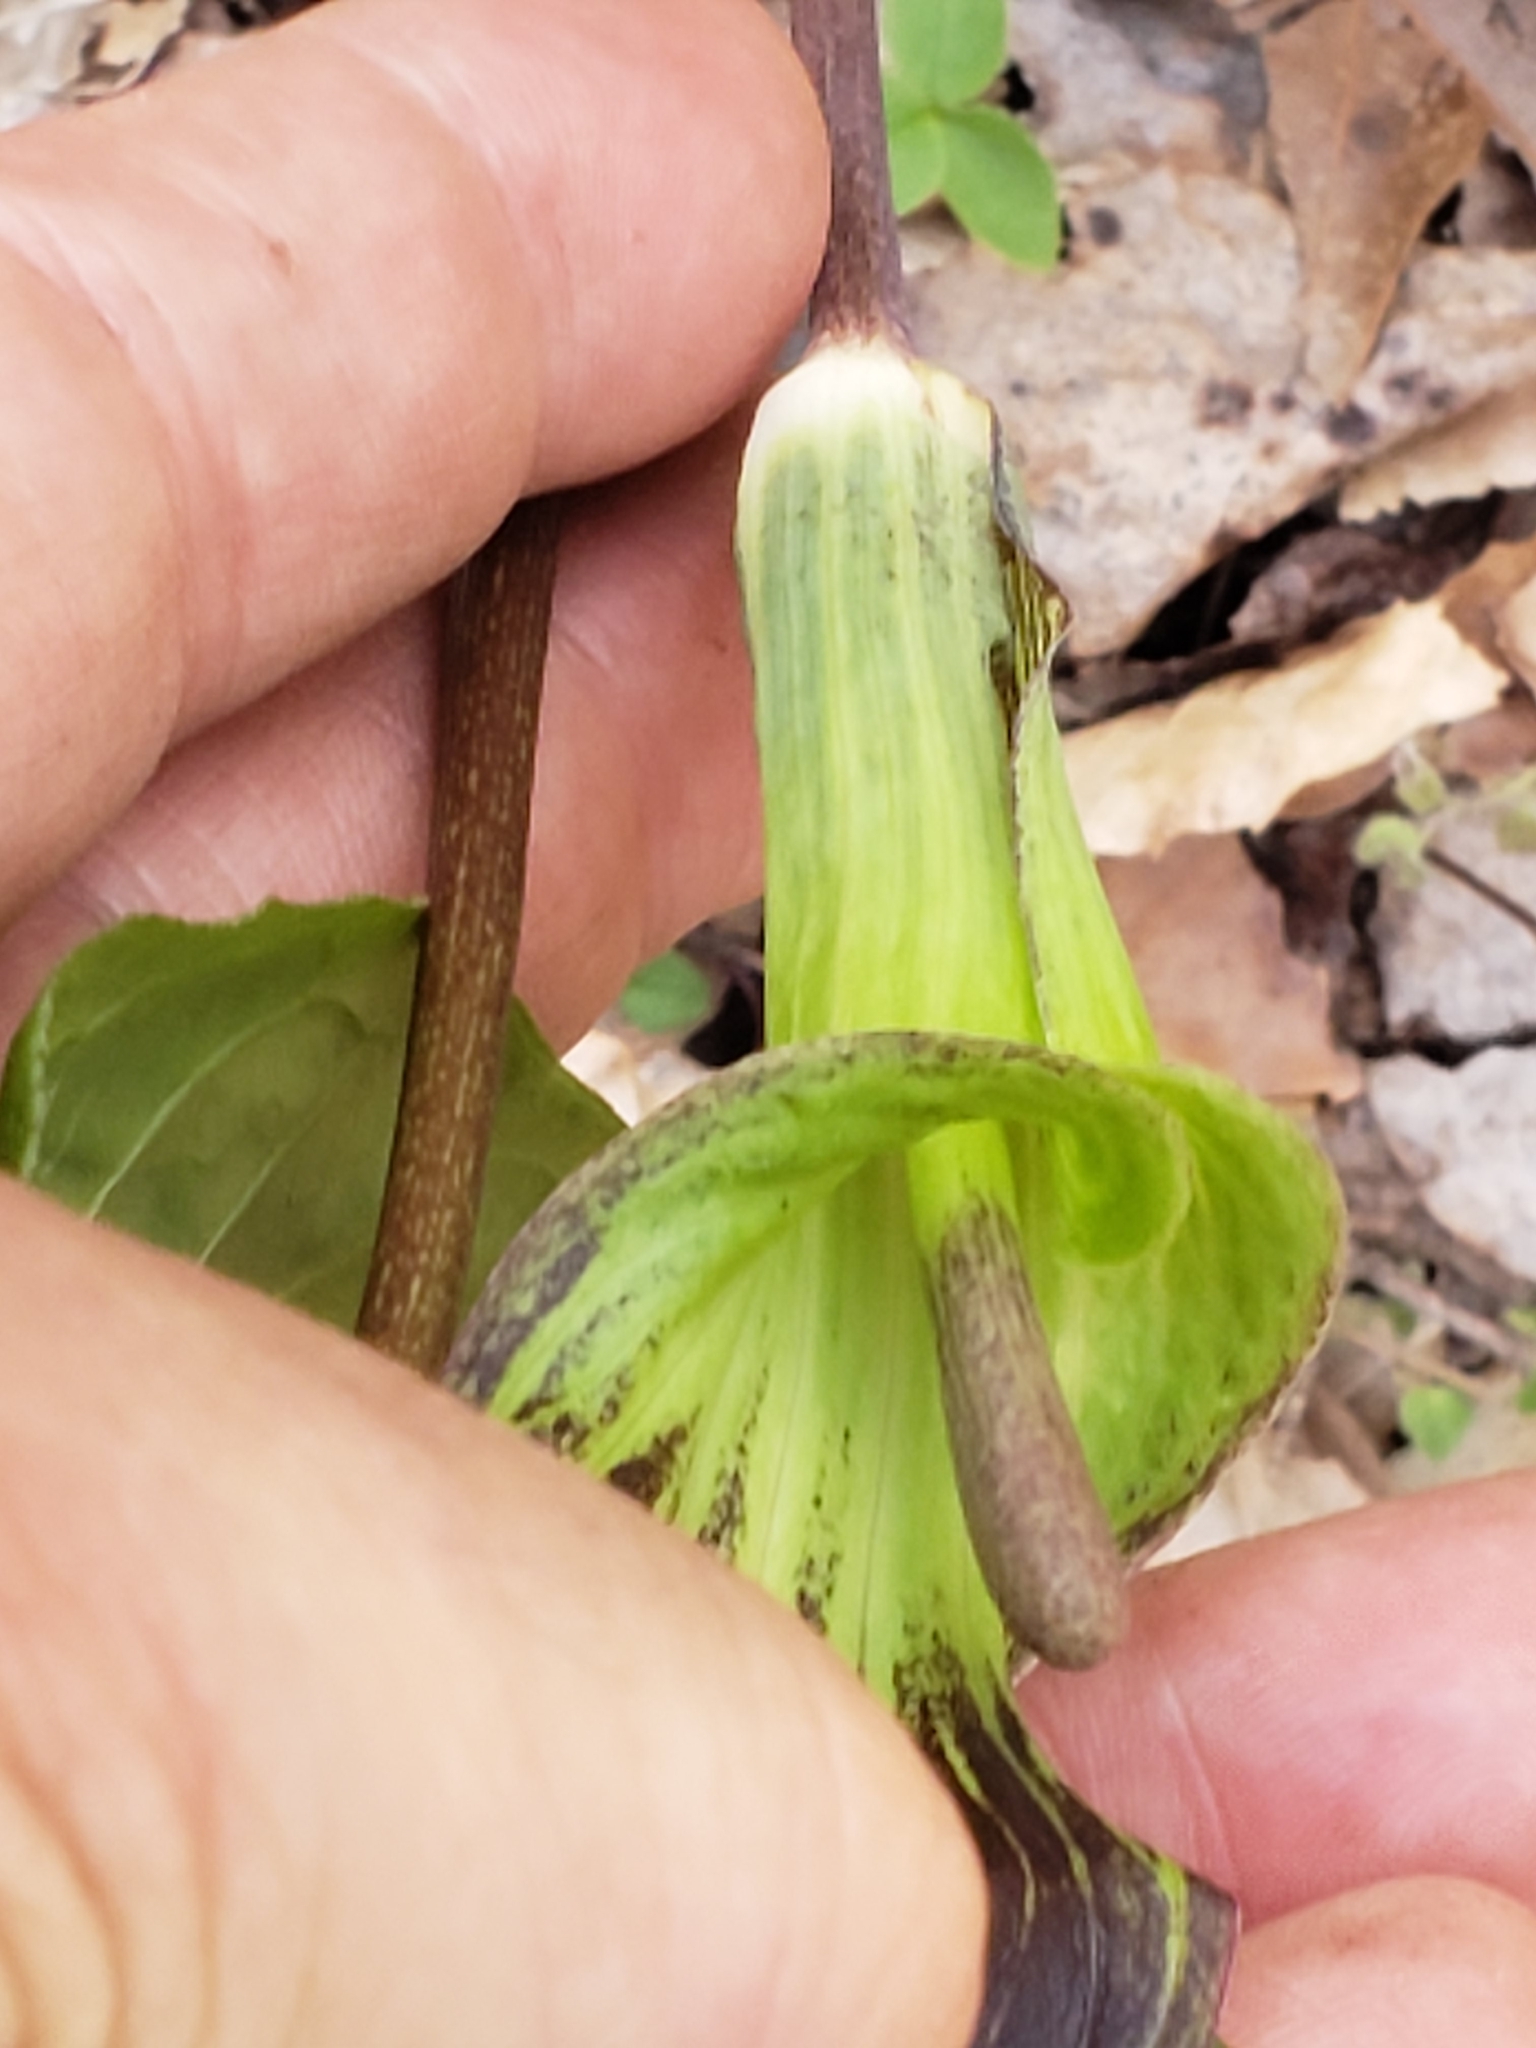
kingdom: Plantae
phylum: Tracheophyta
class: Liliopsida
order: Alismatales
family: Araceae
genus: Arisaema
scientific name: Arisaema triphyllum
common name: Jack-in-the-pulpit
